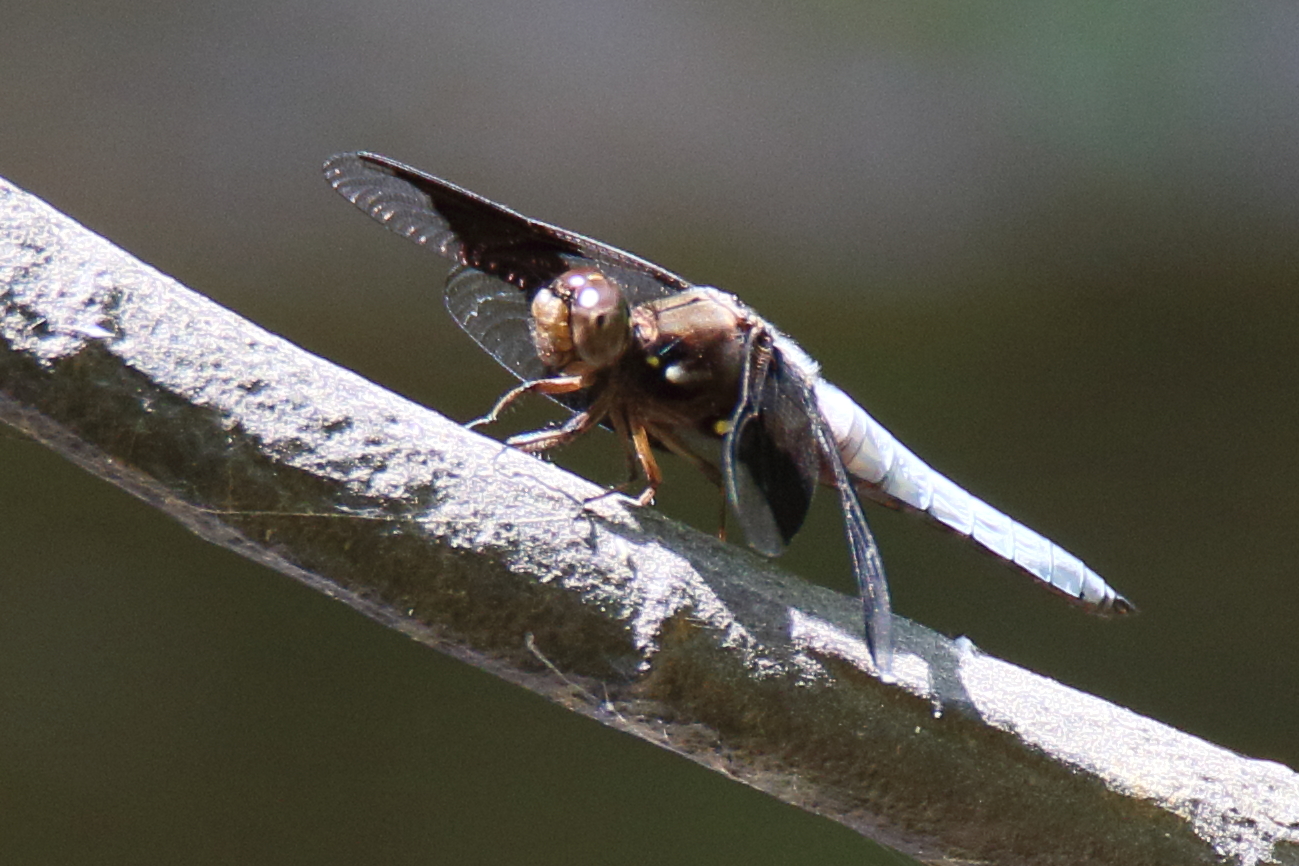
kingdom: Animalia
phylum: Arthropoda
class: Insecta
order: Odonata
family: Libellulidae
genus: Plathemis
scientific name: Plathemis lydia
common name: Common whitetail
